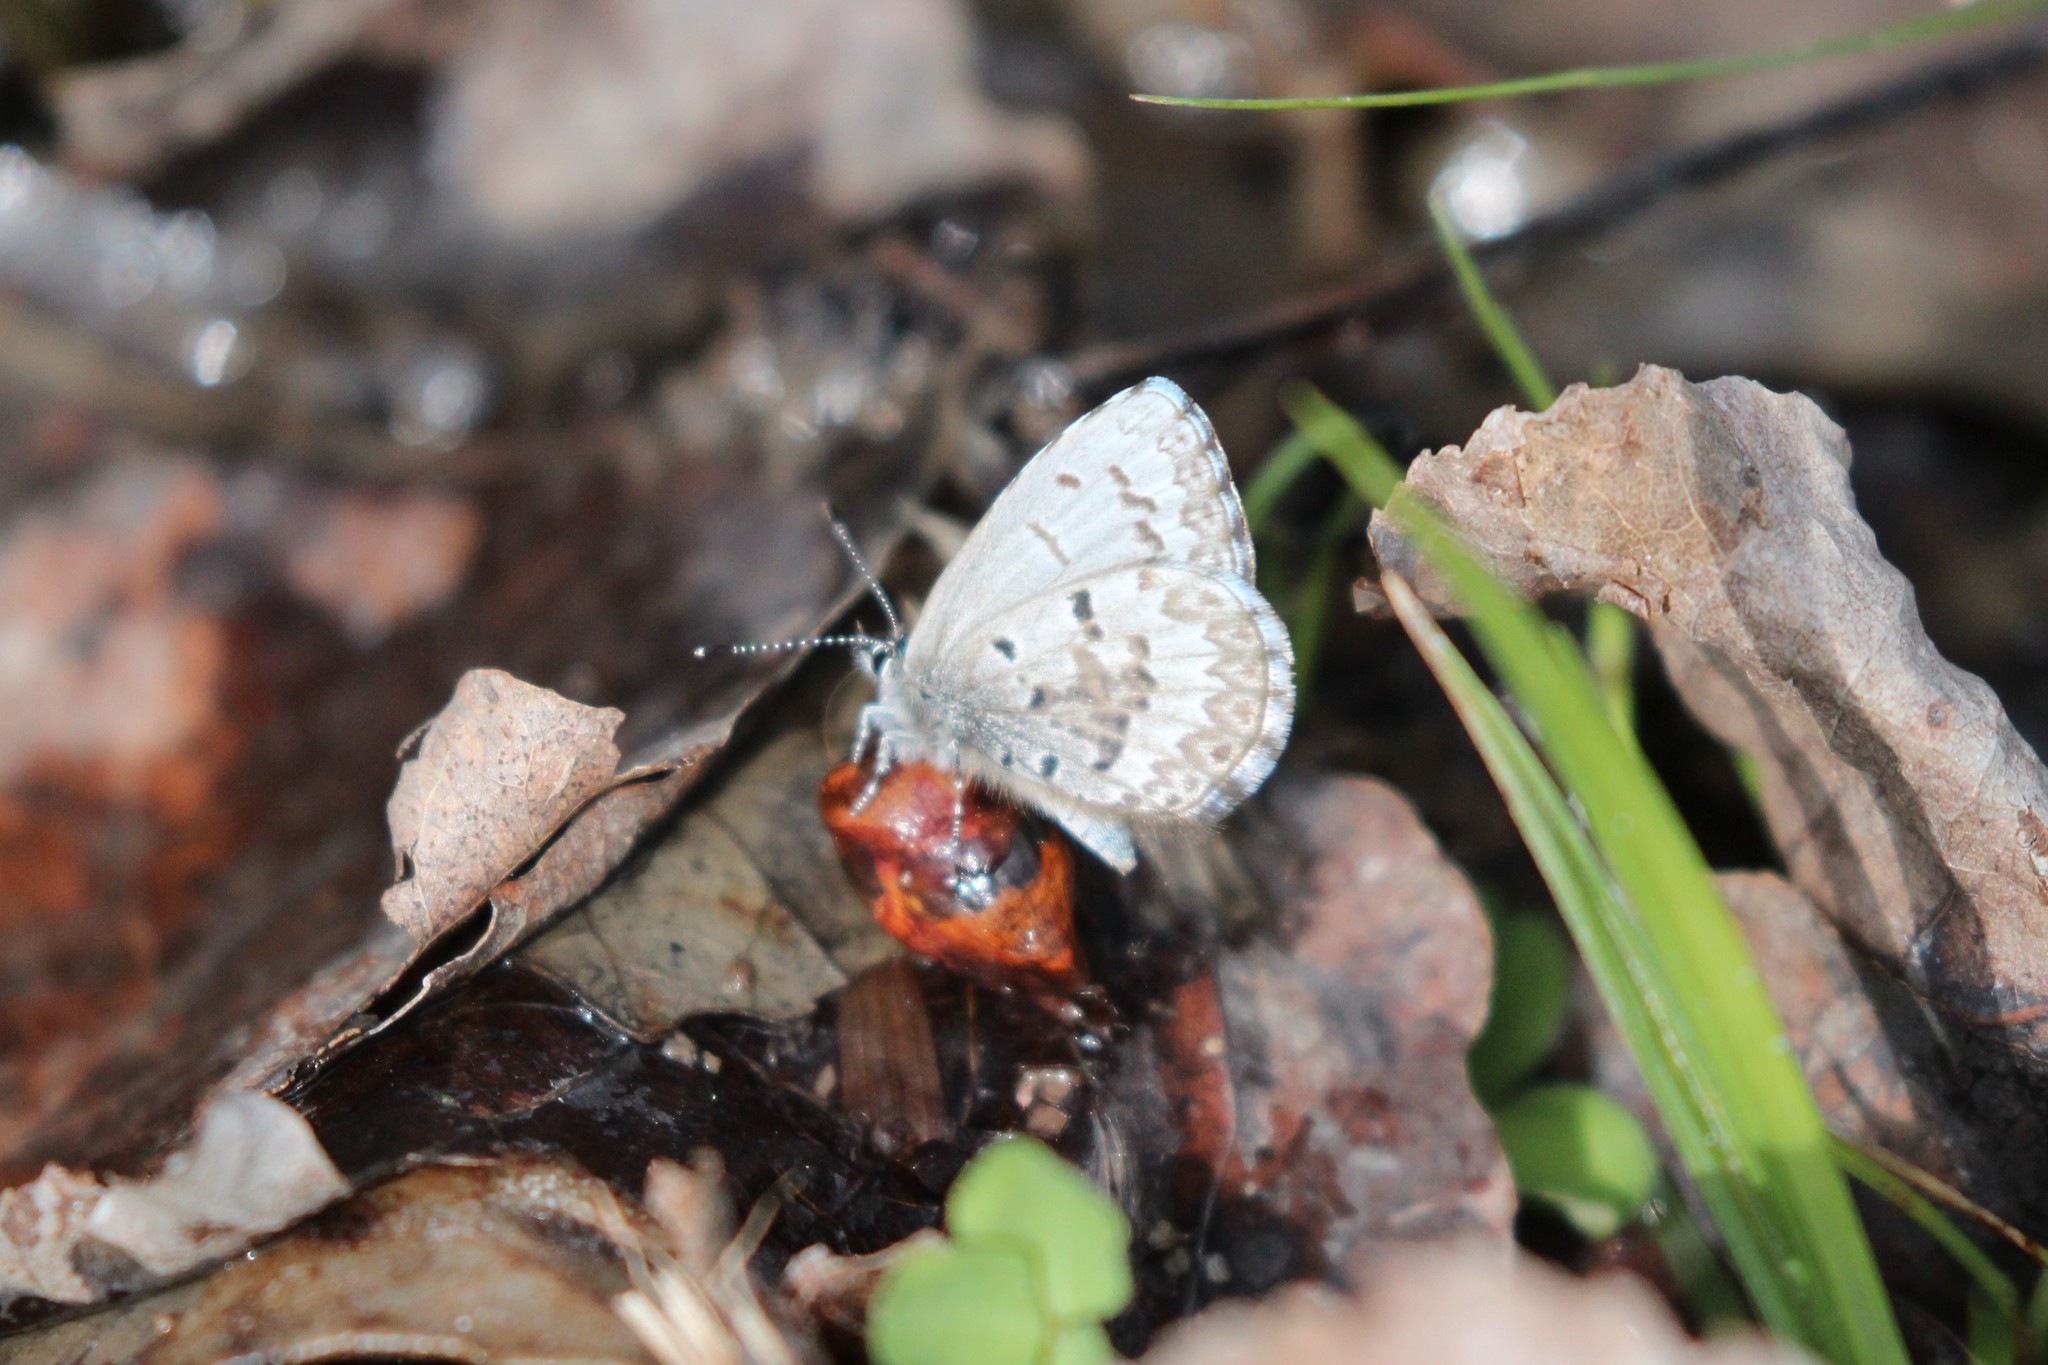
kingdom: Animalia
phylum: Arthropoda
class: Insecta
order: Lepidoptera
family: Lycaenidae
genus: Celastrina
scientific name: Celastrina lucia
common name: Lucia azure
